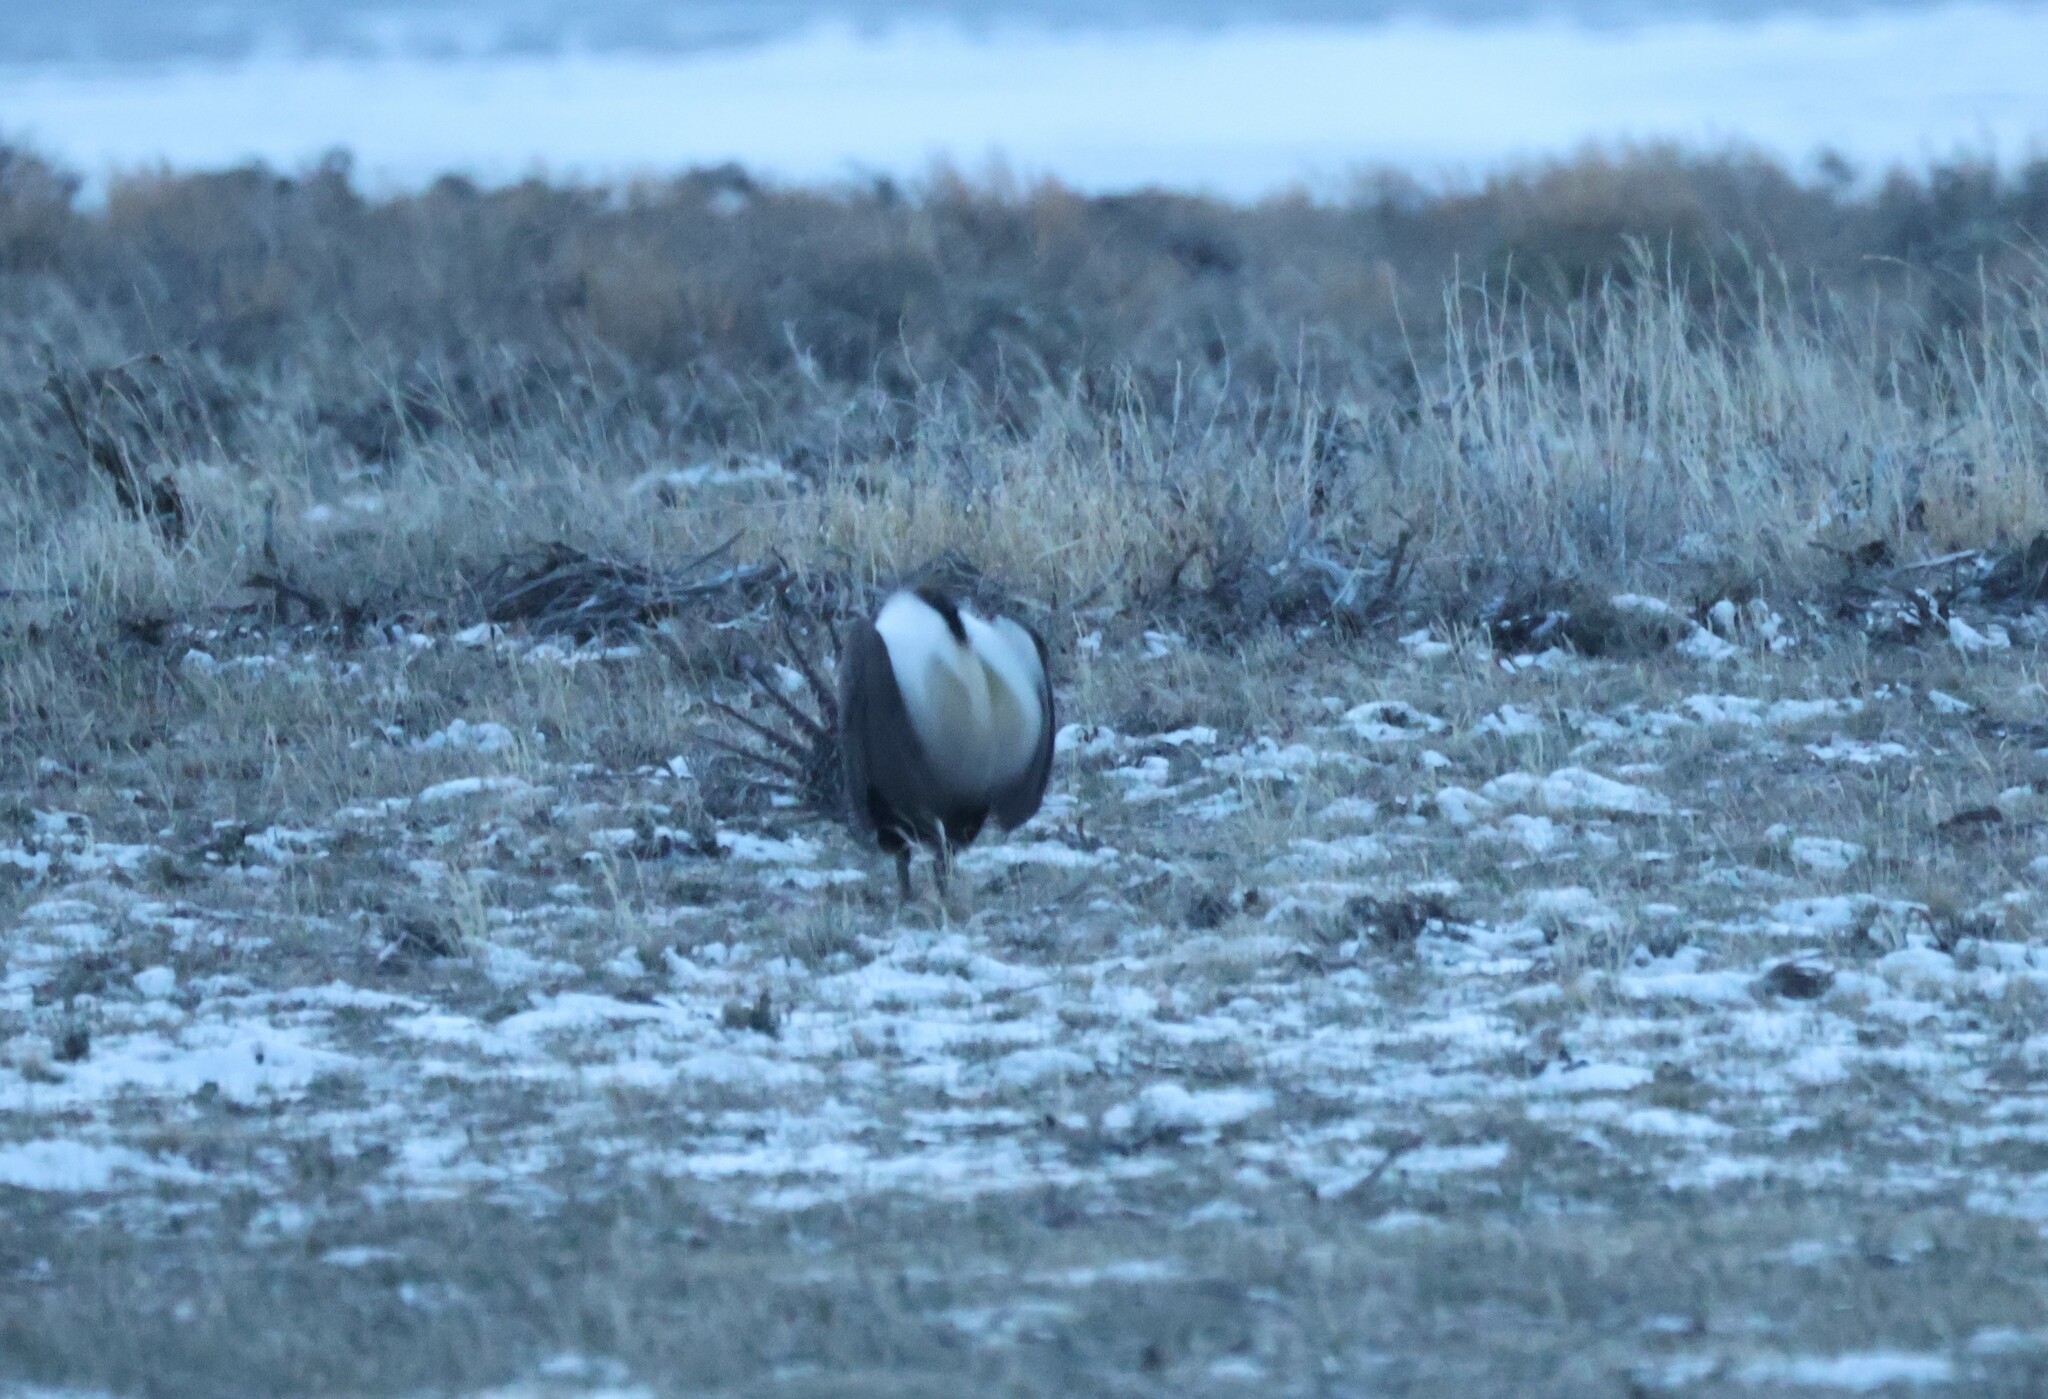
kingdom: Animalia
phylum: Chordata
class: Aves
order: Galliformes
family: Phasianidae
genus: Centrocercus
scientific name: Centrocercus urophasianus
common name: Sage grouse
